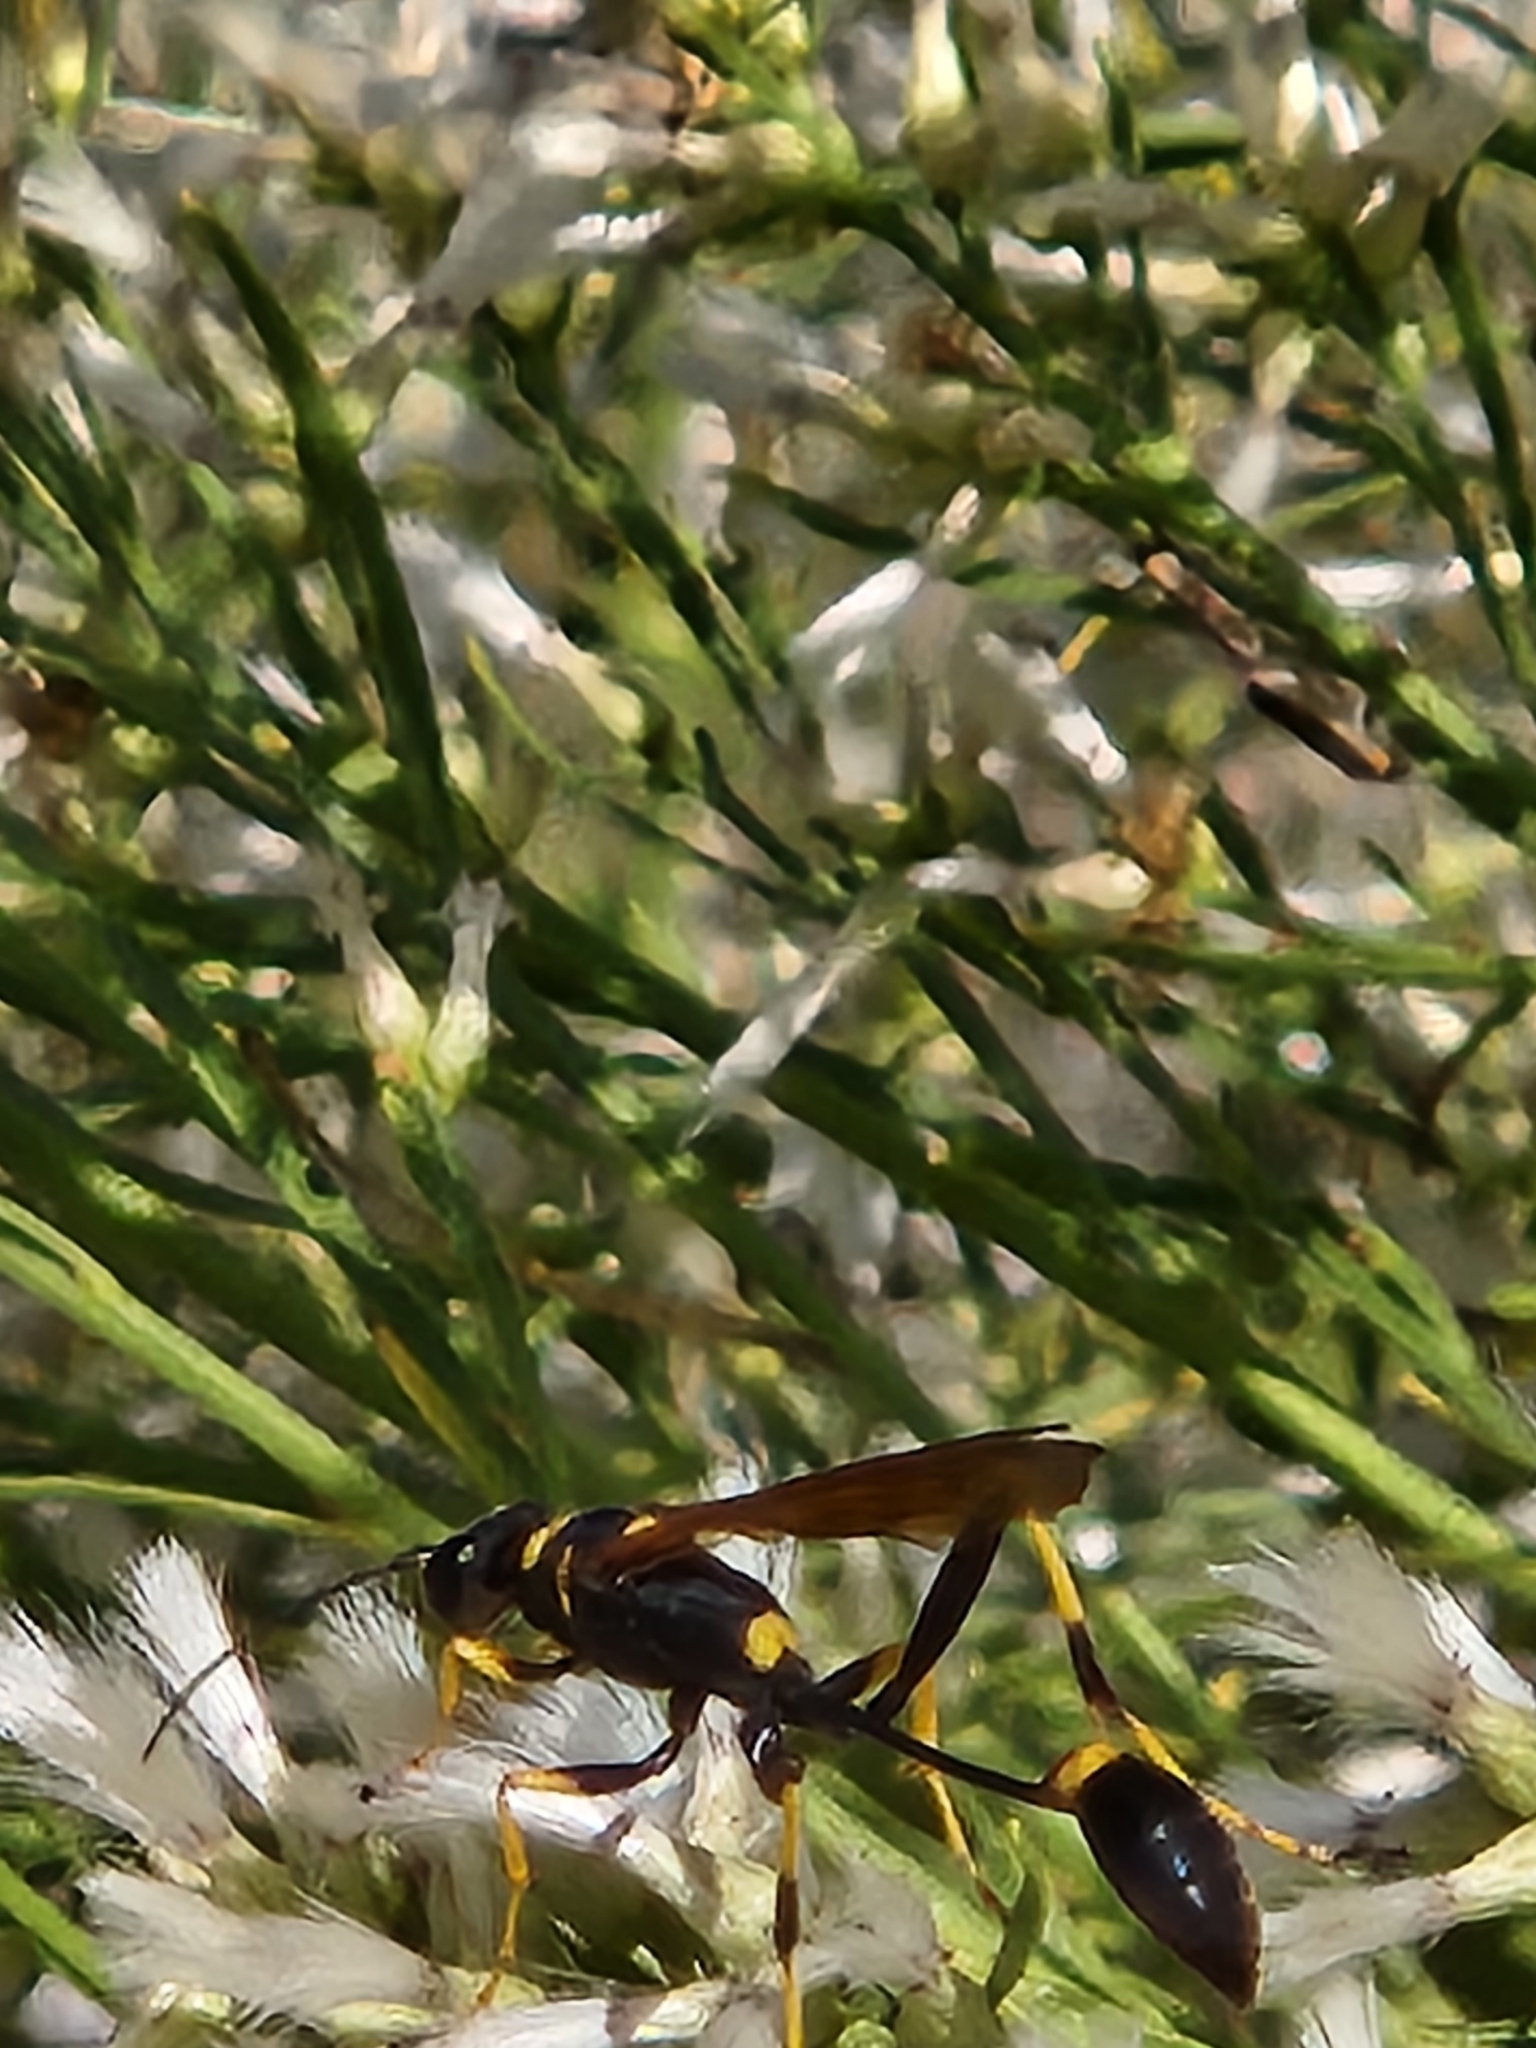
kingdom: Animalia
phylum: Arthropoda
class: Insecta
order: Hymenoptera
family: Sphecidae
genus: Sceliphron
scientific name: Sceliphron caementarium
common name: Mud dauber
